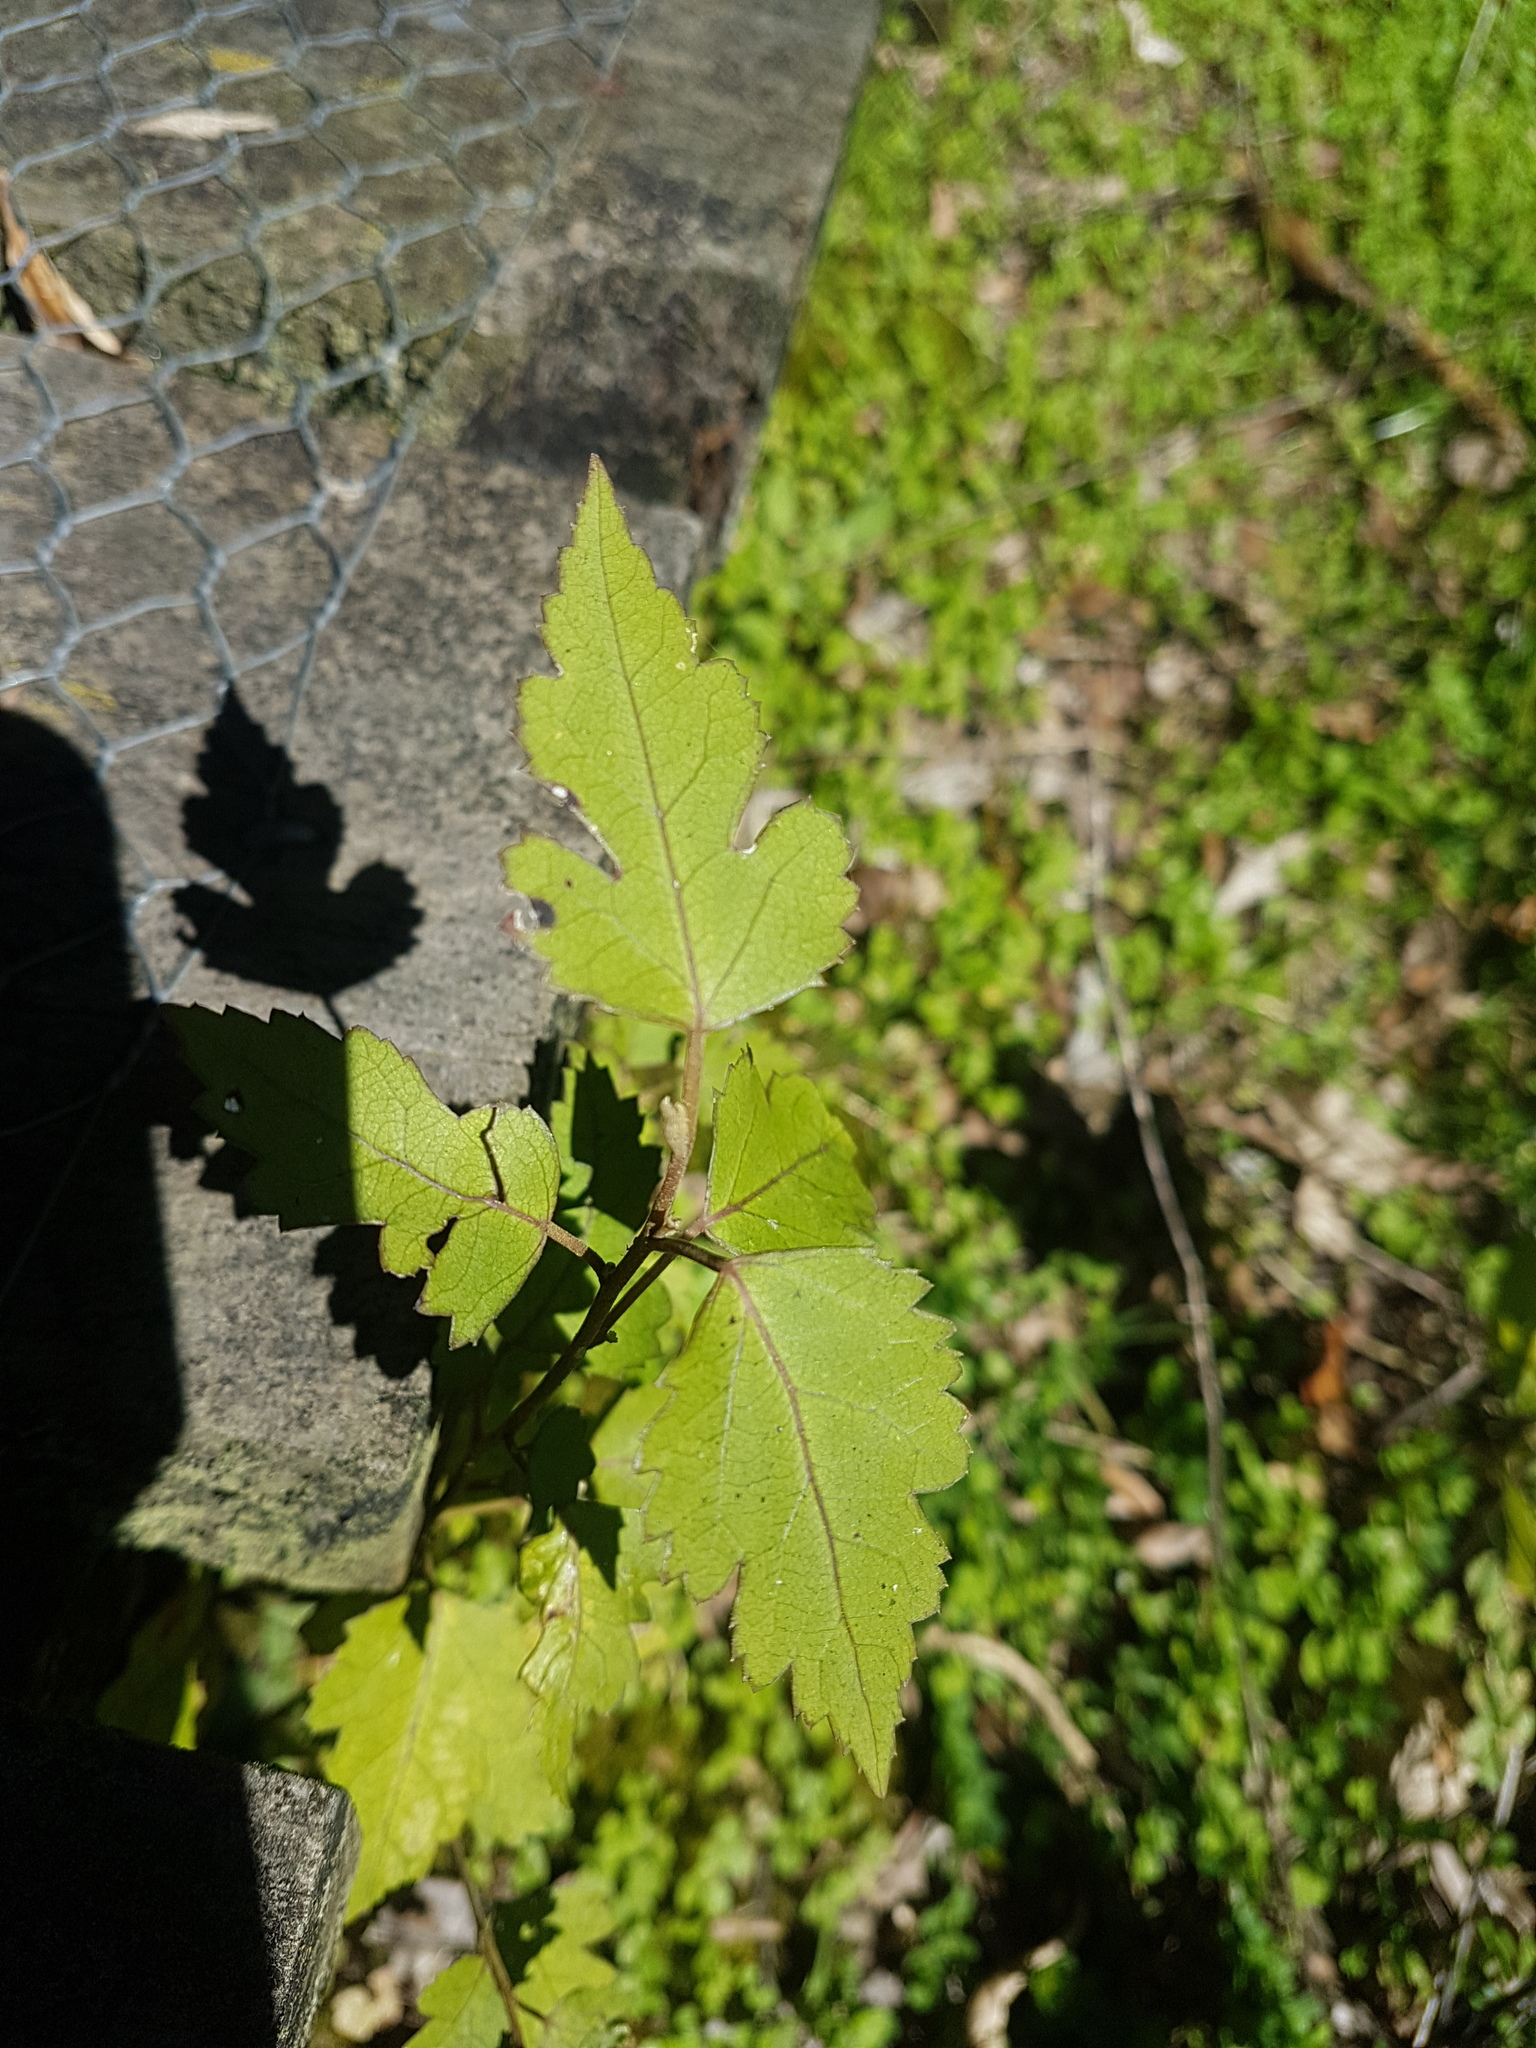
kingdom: Plantae
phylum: Tracheophyta
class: Magnoliopsida
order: Malvales
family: Malvaceae
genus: Hoheria
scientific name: Hoheria sexstylosa
